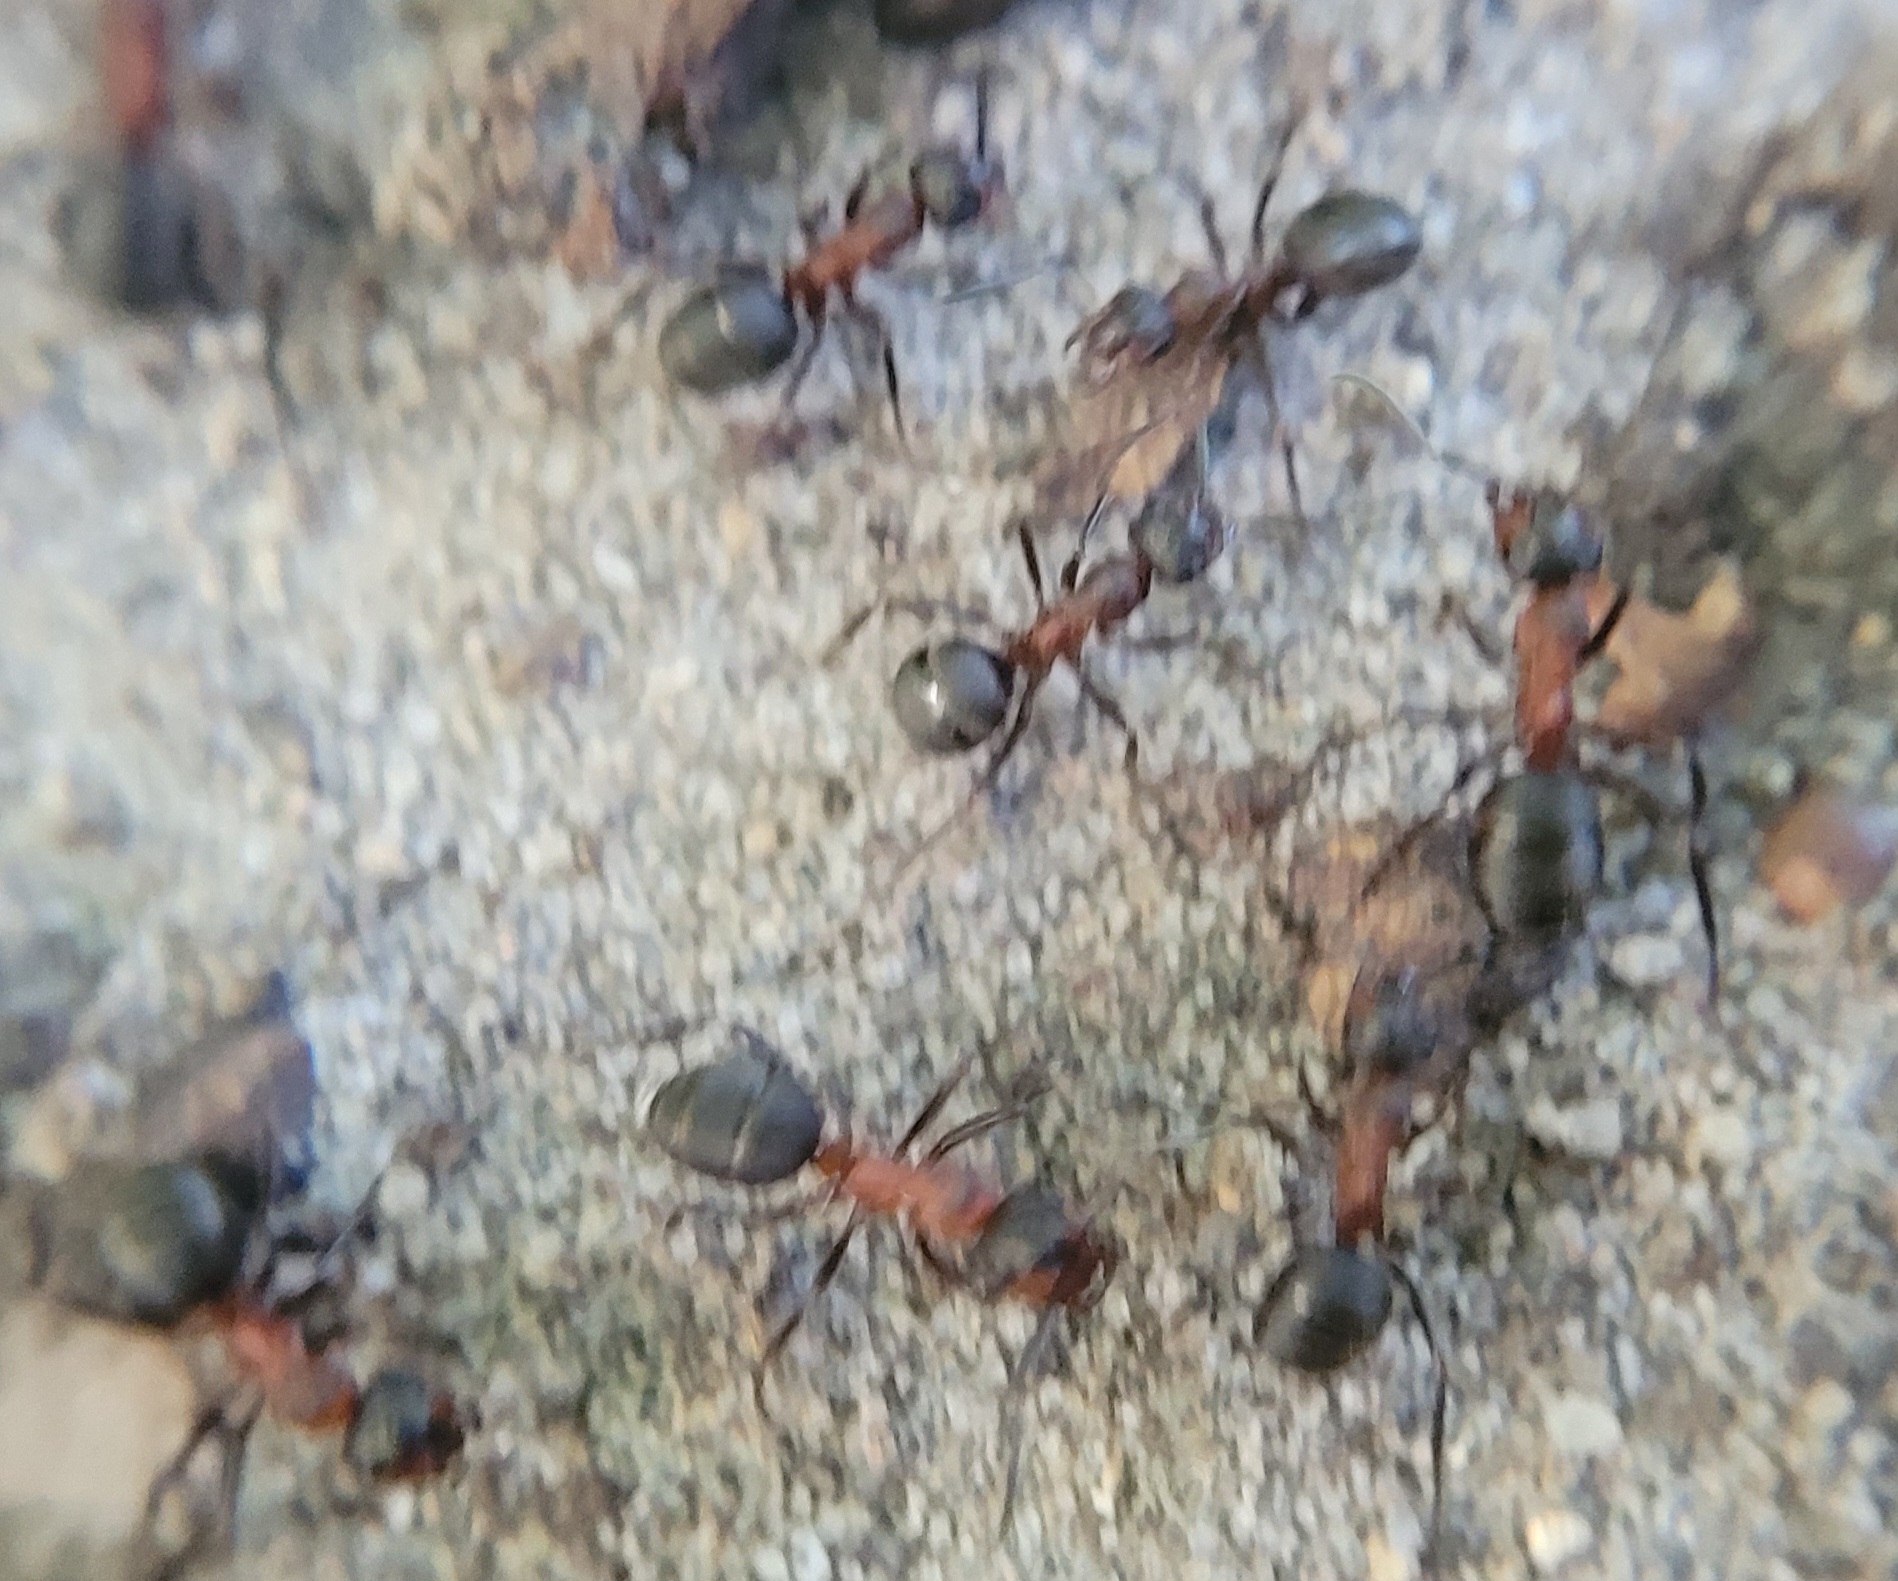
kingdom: Animalia
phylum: Arthropoda
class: Insecta
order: Hymenoptera
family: Formicidae
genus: Formica
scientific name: Formica rufa
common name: Red wood ant
